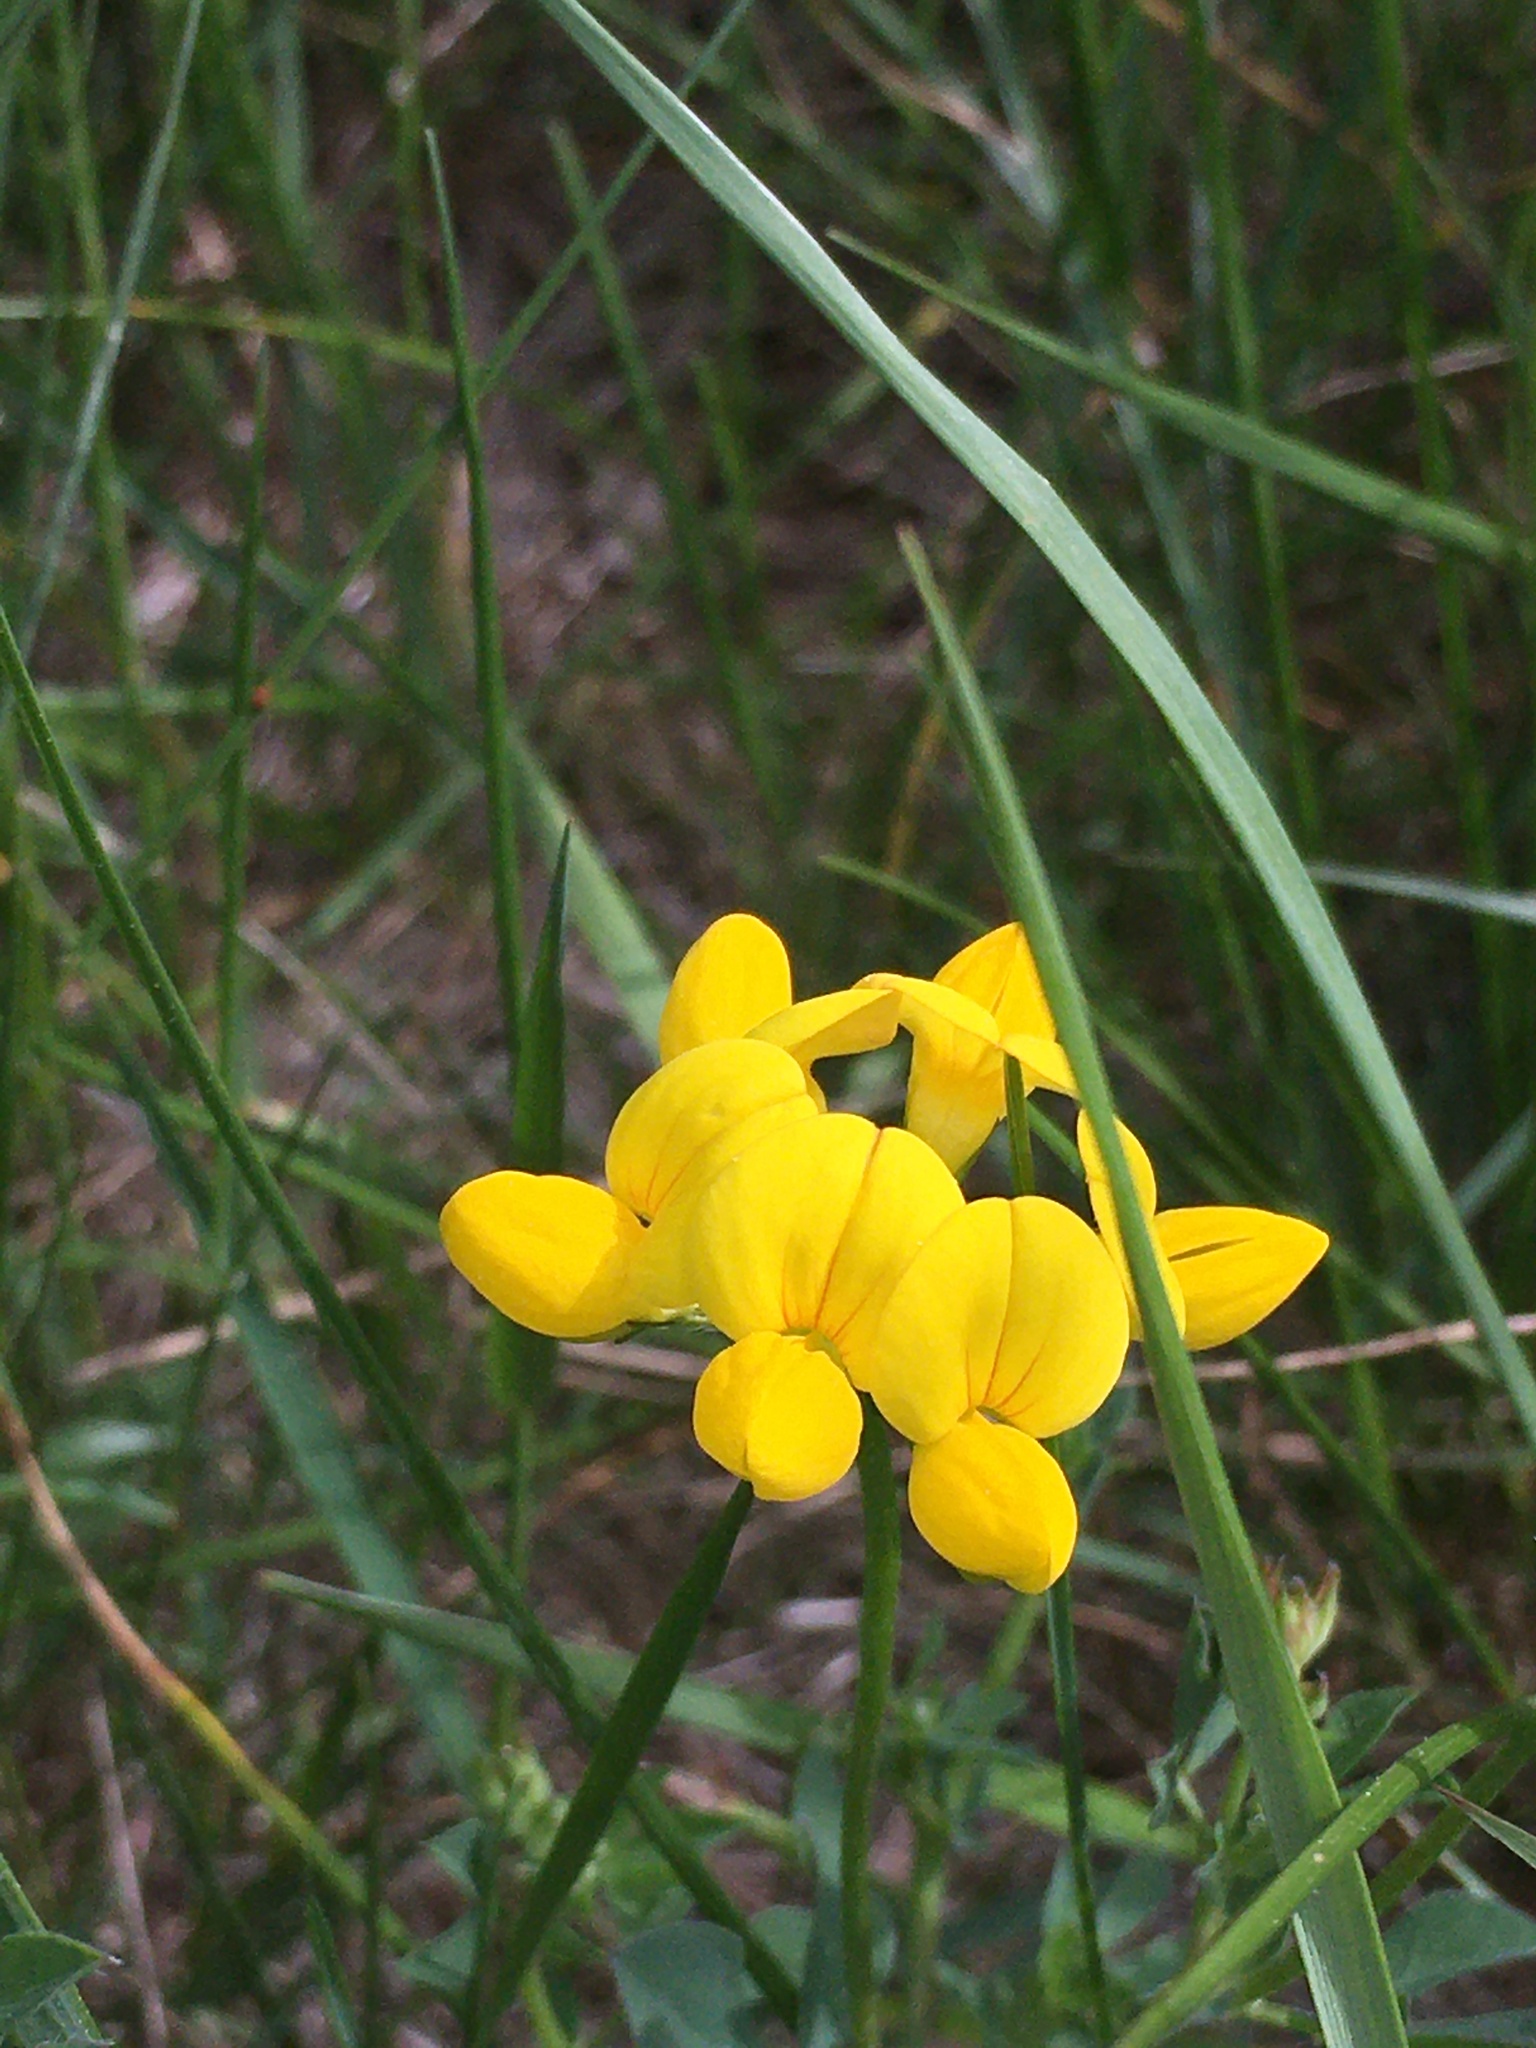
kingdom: Plantae
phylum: Tracheophyta
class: Magnoliopsida
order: Fabales
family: Fabaceae
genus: Lotus
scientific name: Lotus corniculatus
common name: Common bird's-foot-trefoil
